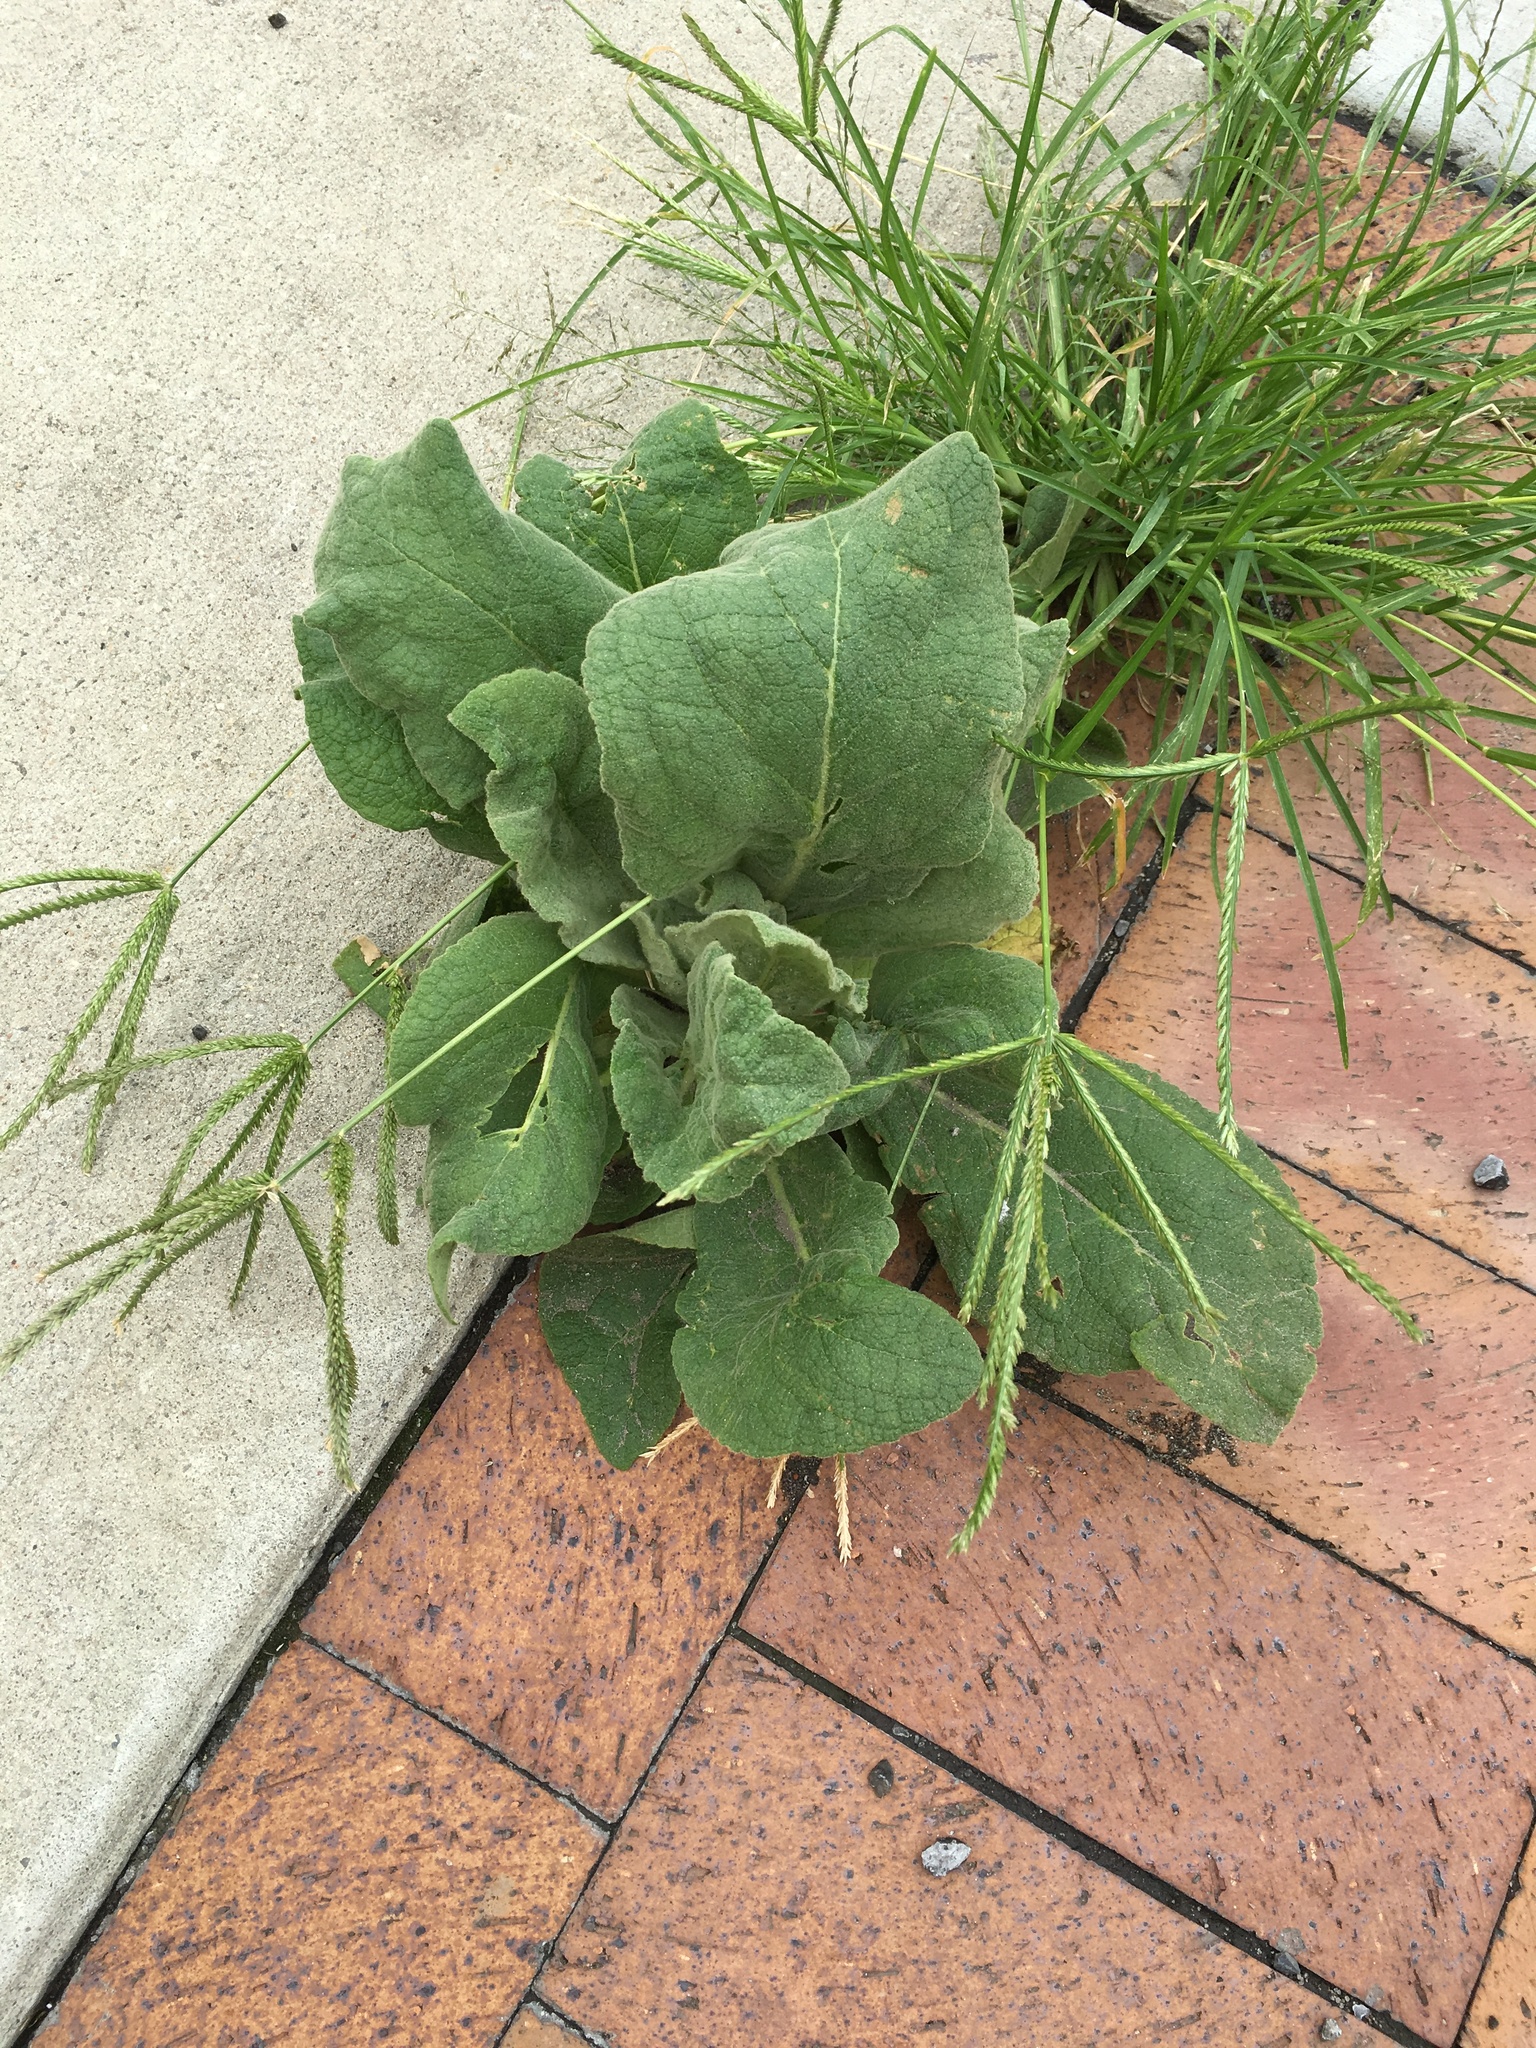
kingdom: Plantae
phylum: Tracheophyta
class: Magnoliopsida
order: Lamiales
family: Scrophulariaceae
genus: Verbascum
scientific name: Verbascum thapsus
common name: Common mullein
